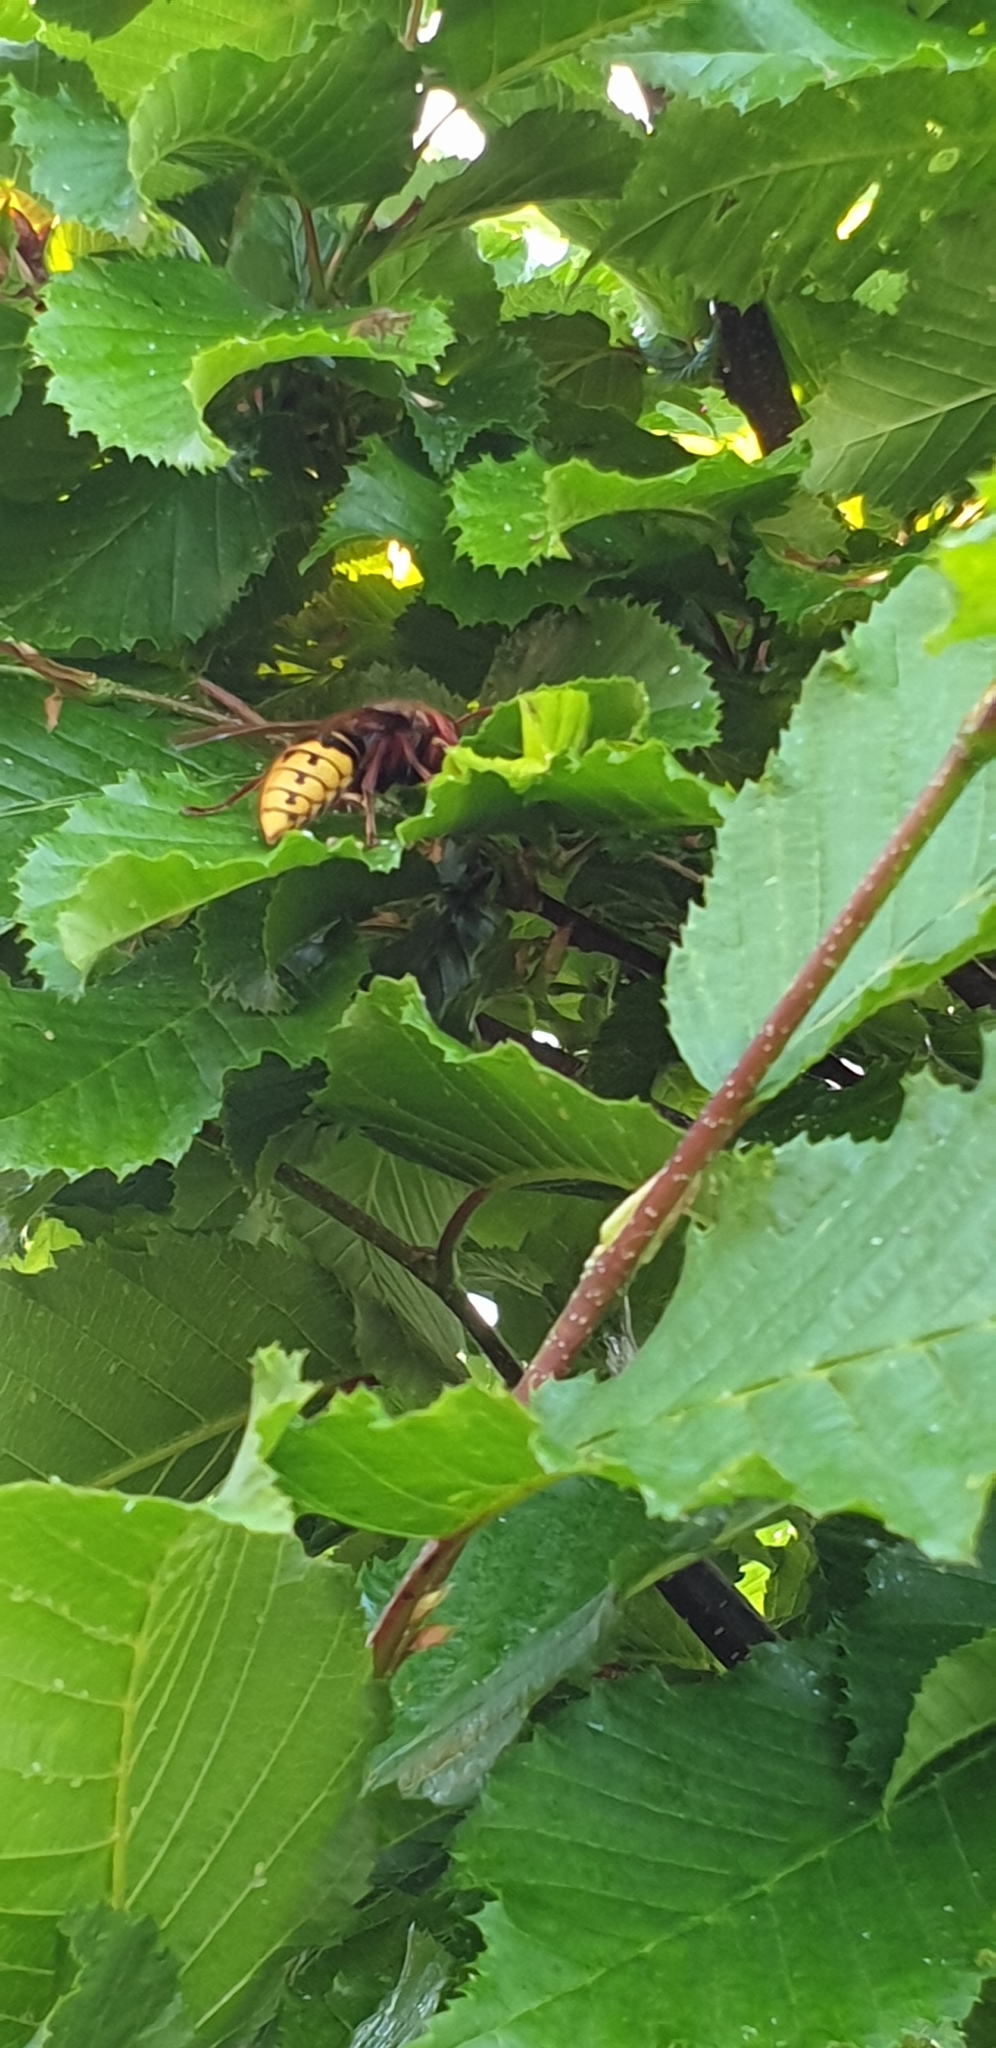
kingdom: Animalia
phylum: Arthropoda
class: Insecta
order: Hymenoptera
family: Vespidae
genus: Vespa
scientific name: Vespa crabro
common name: Hornet
